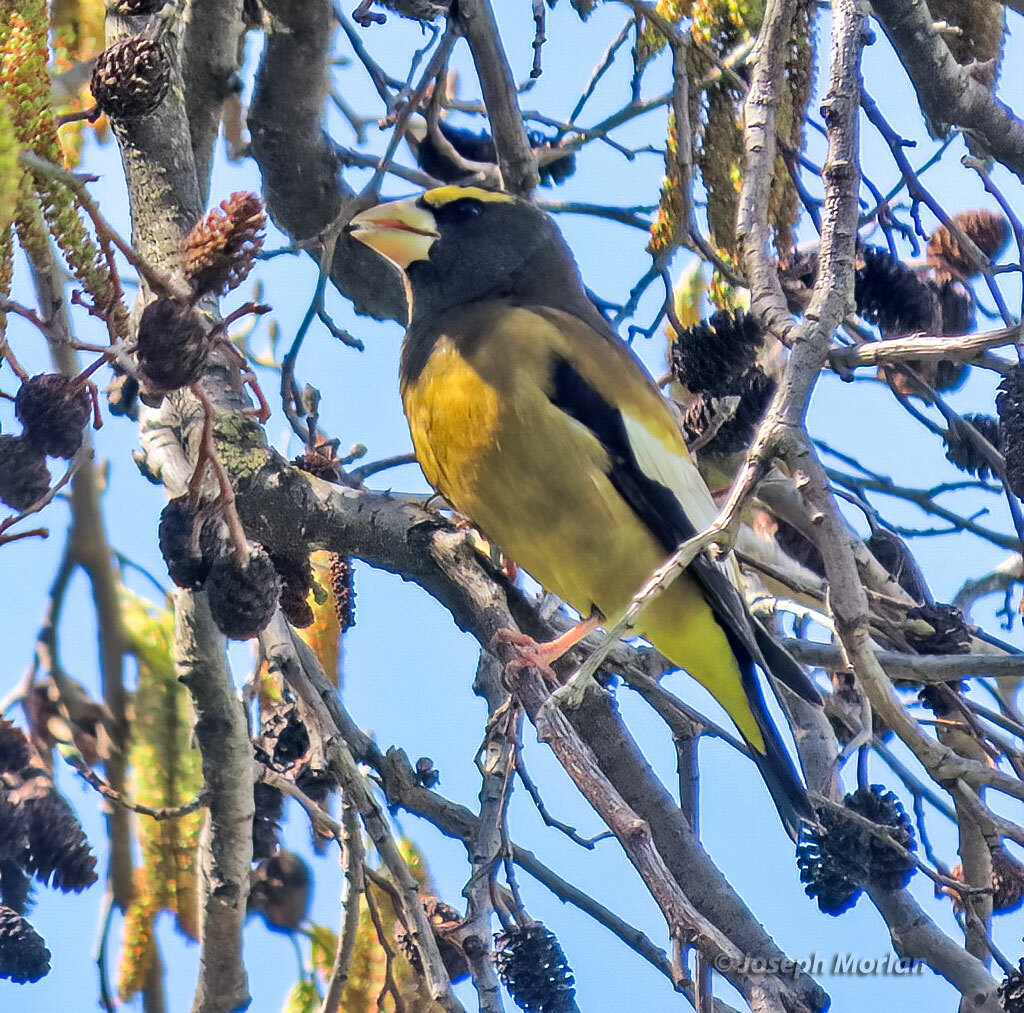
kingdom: Animalia
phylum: Chordata
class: Aves
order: Passeriformes
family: Fringillidae
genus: Hesperiphona
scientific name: Hesperiphona vespertina
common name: Evening grosbeak
